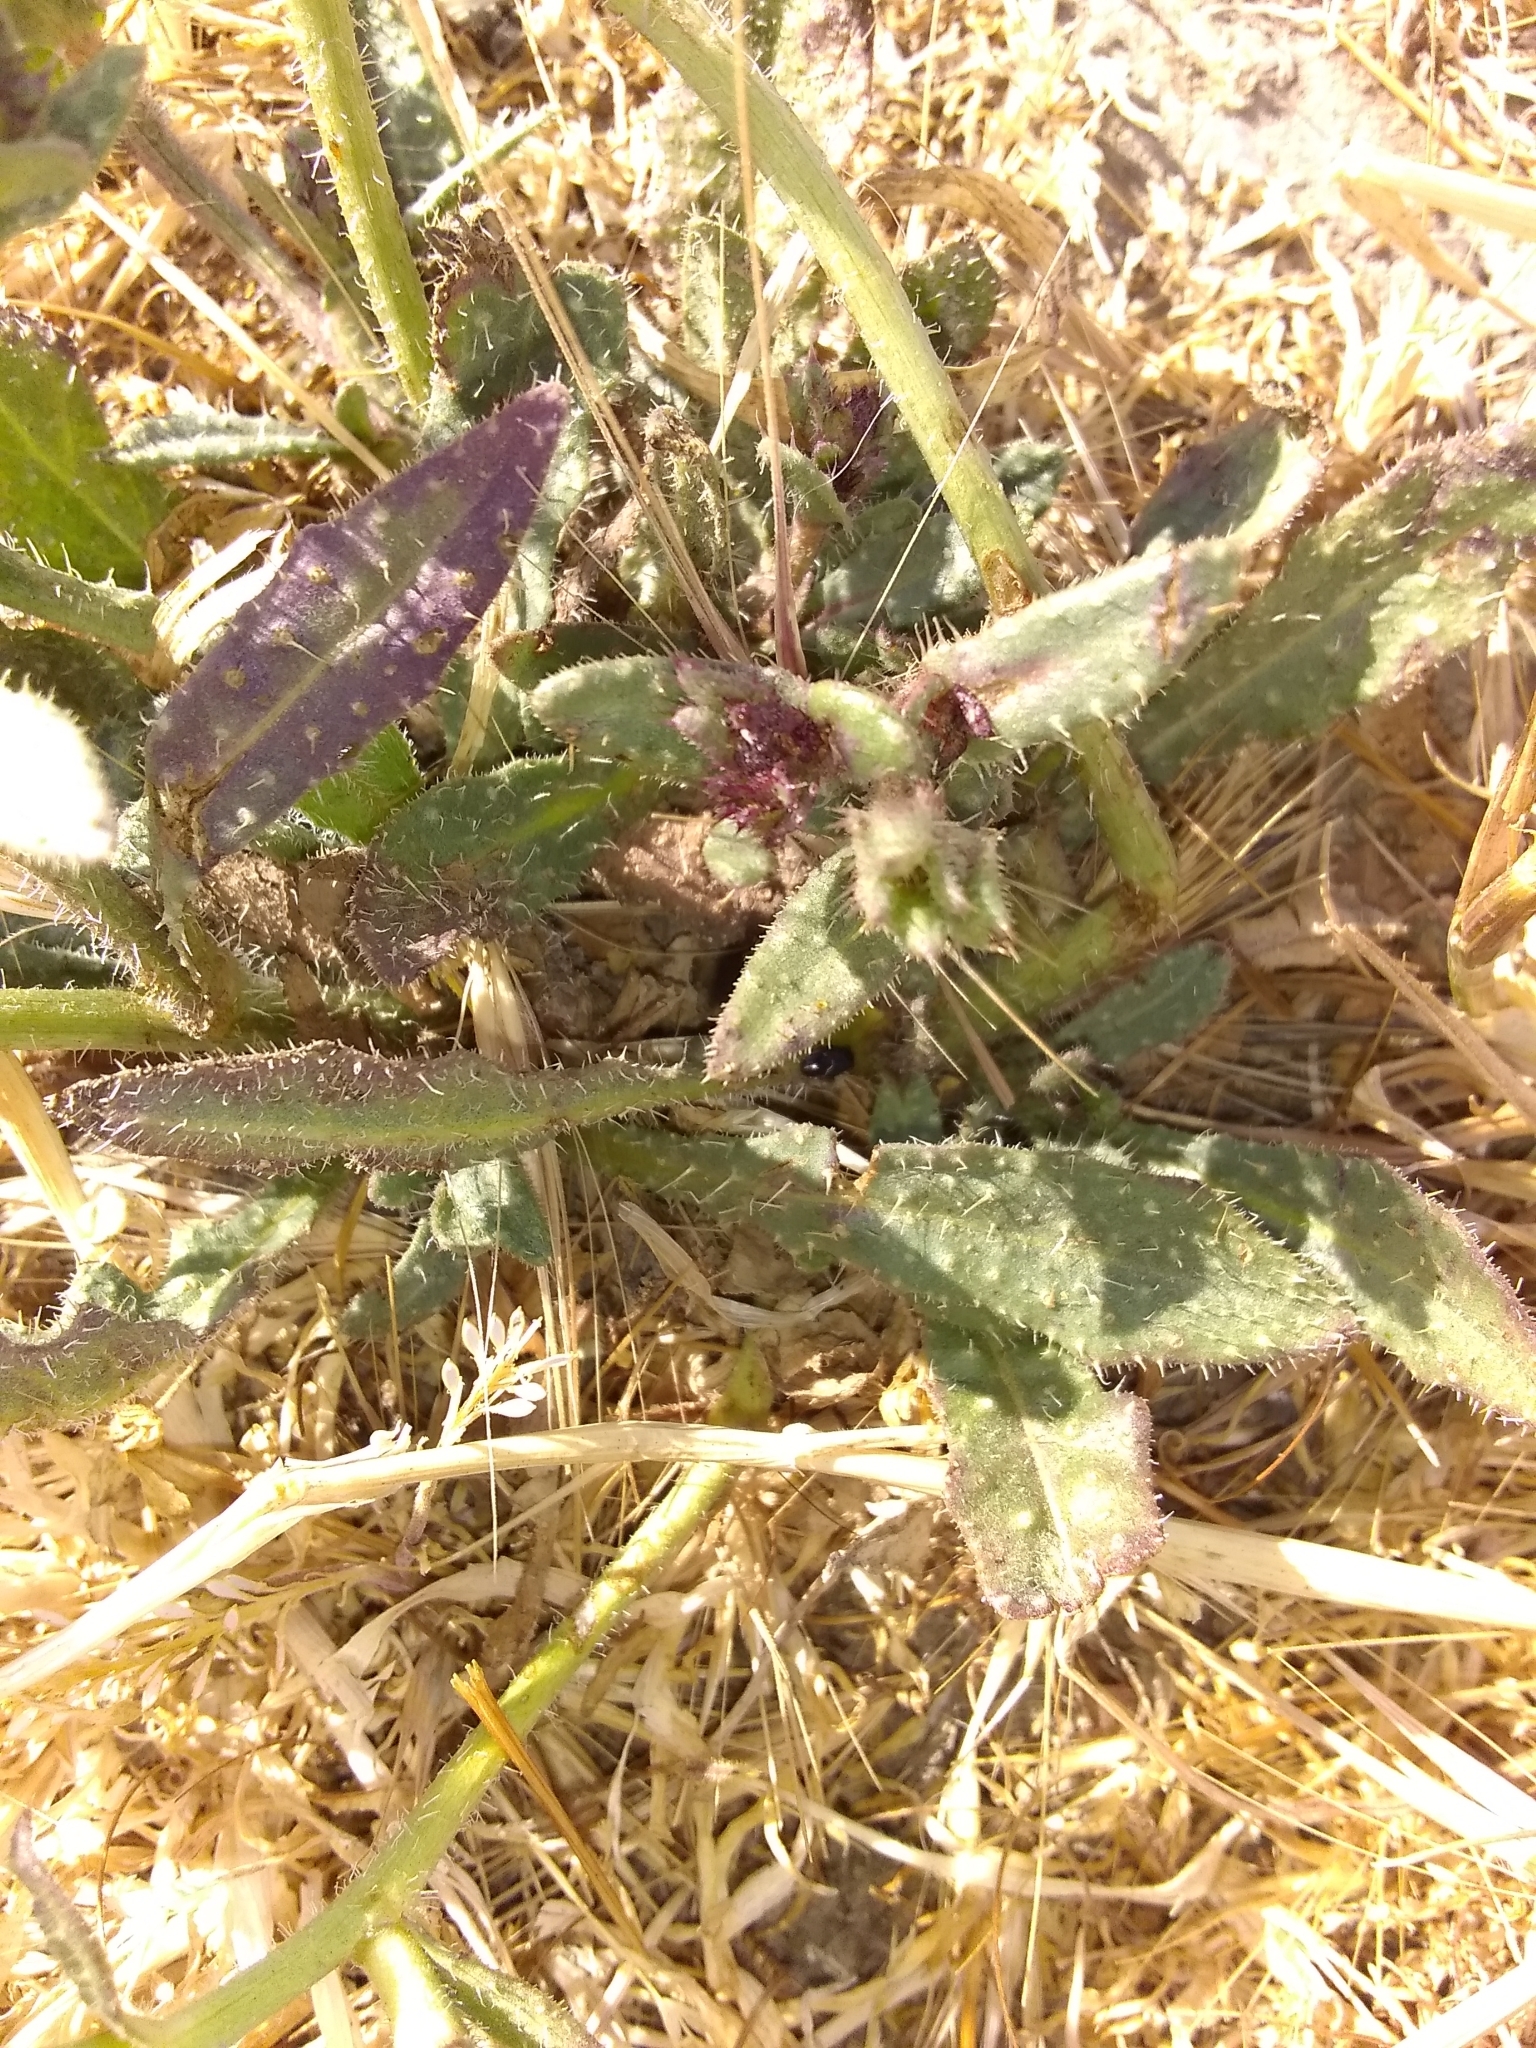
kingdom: Plantae
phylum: Tracheophyta
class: Magnoliopsida
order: Asterales
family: Asteraceae
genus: Helminthotheca
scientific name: Helminthotheca echioides
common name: Ox-tongue
